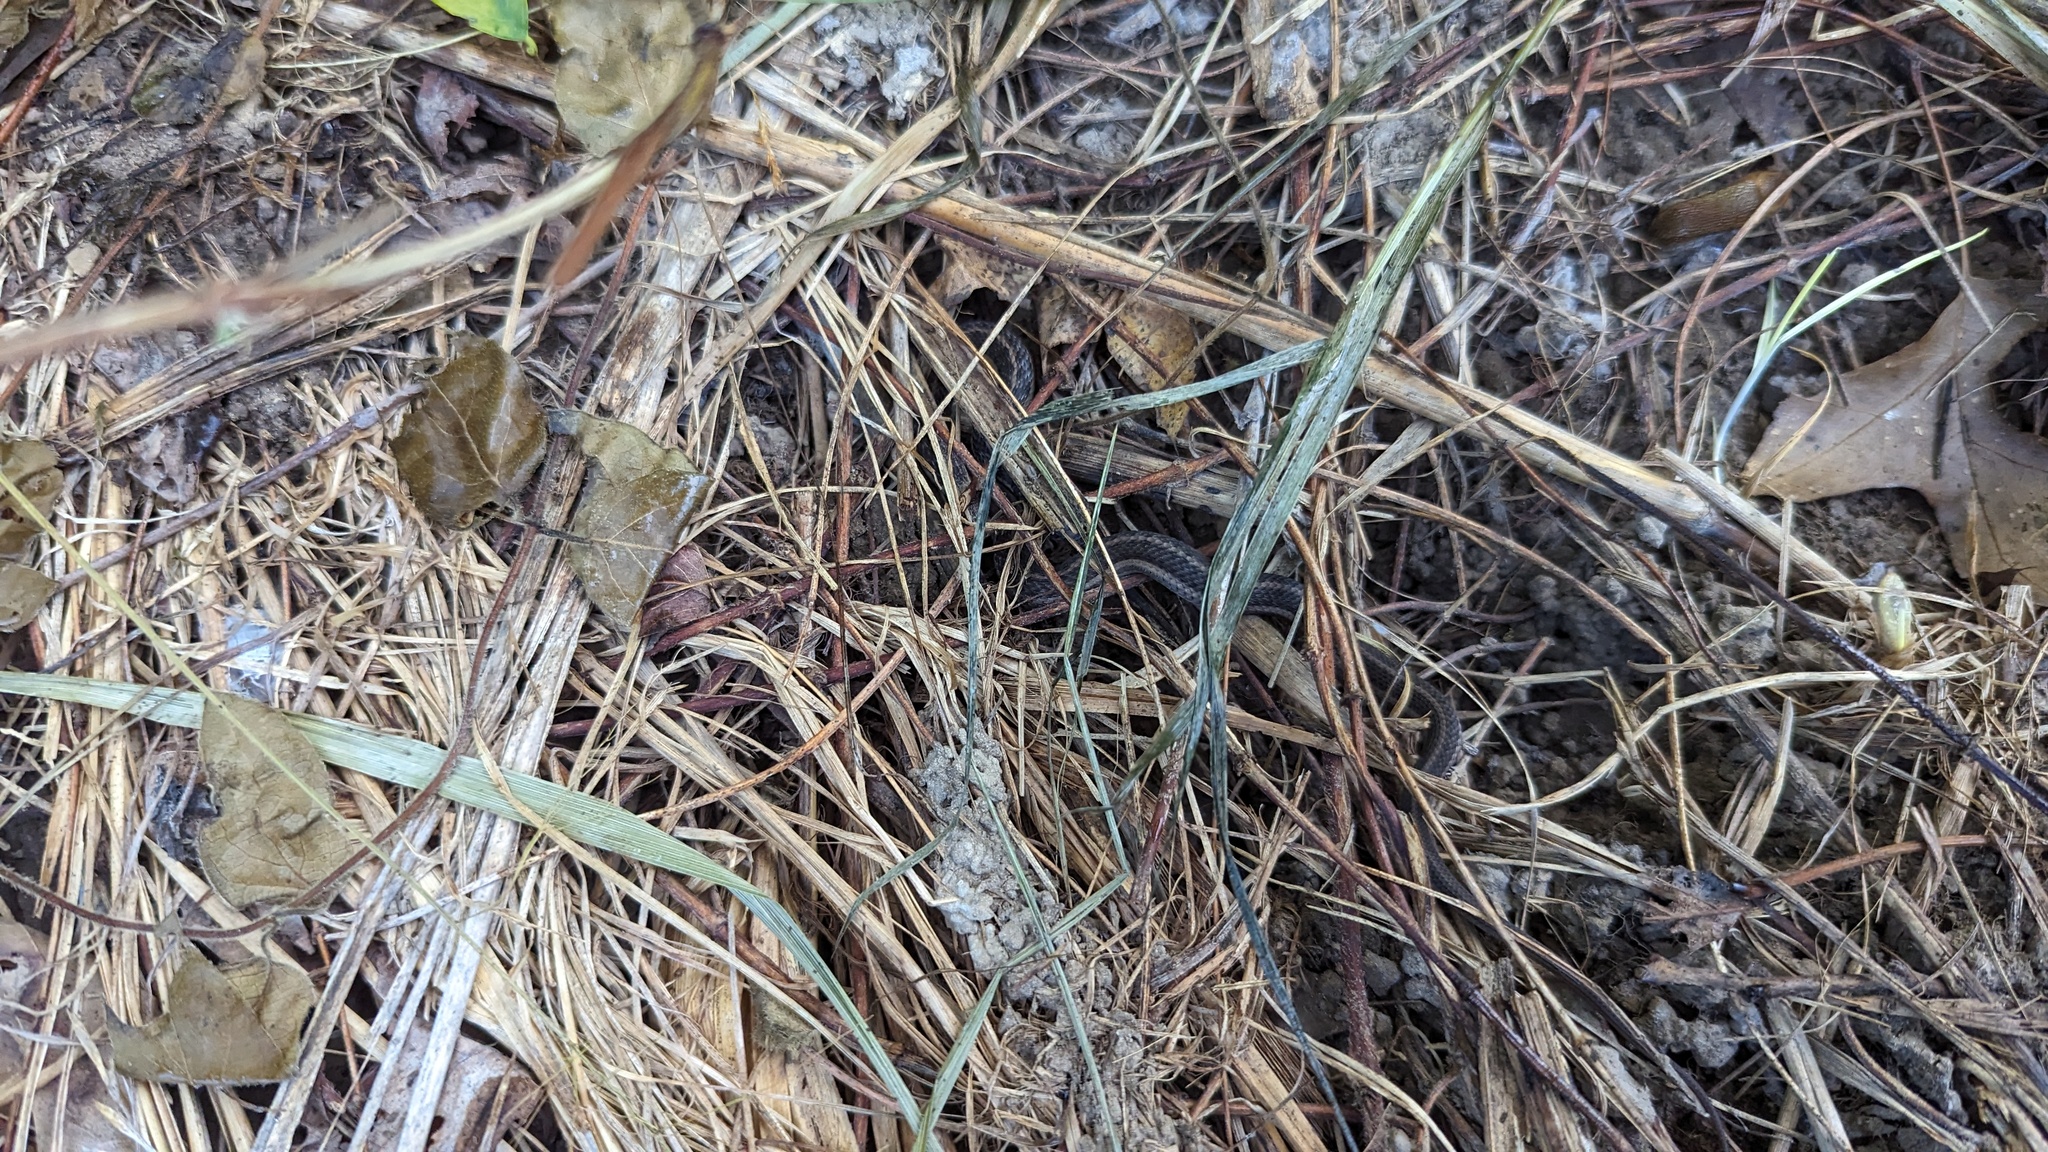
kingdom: Animalia
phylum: Chordata
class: Squamata
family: Colubridae
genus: Thamnophis
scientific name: Thamnophis sirtalis
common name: Common garter snake
